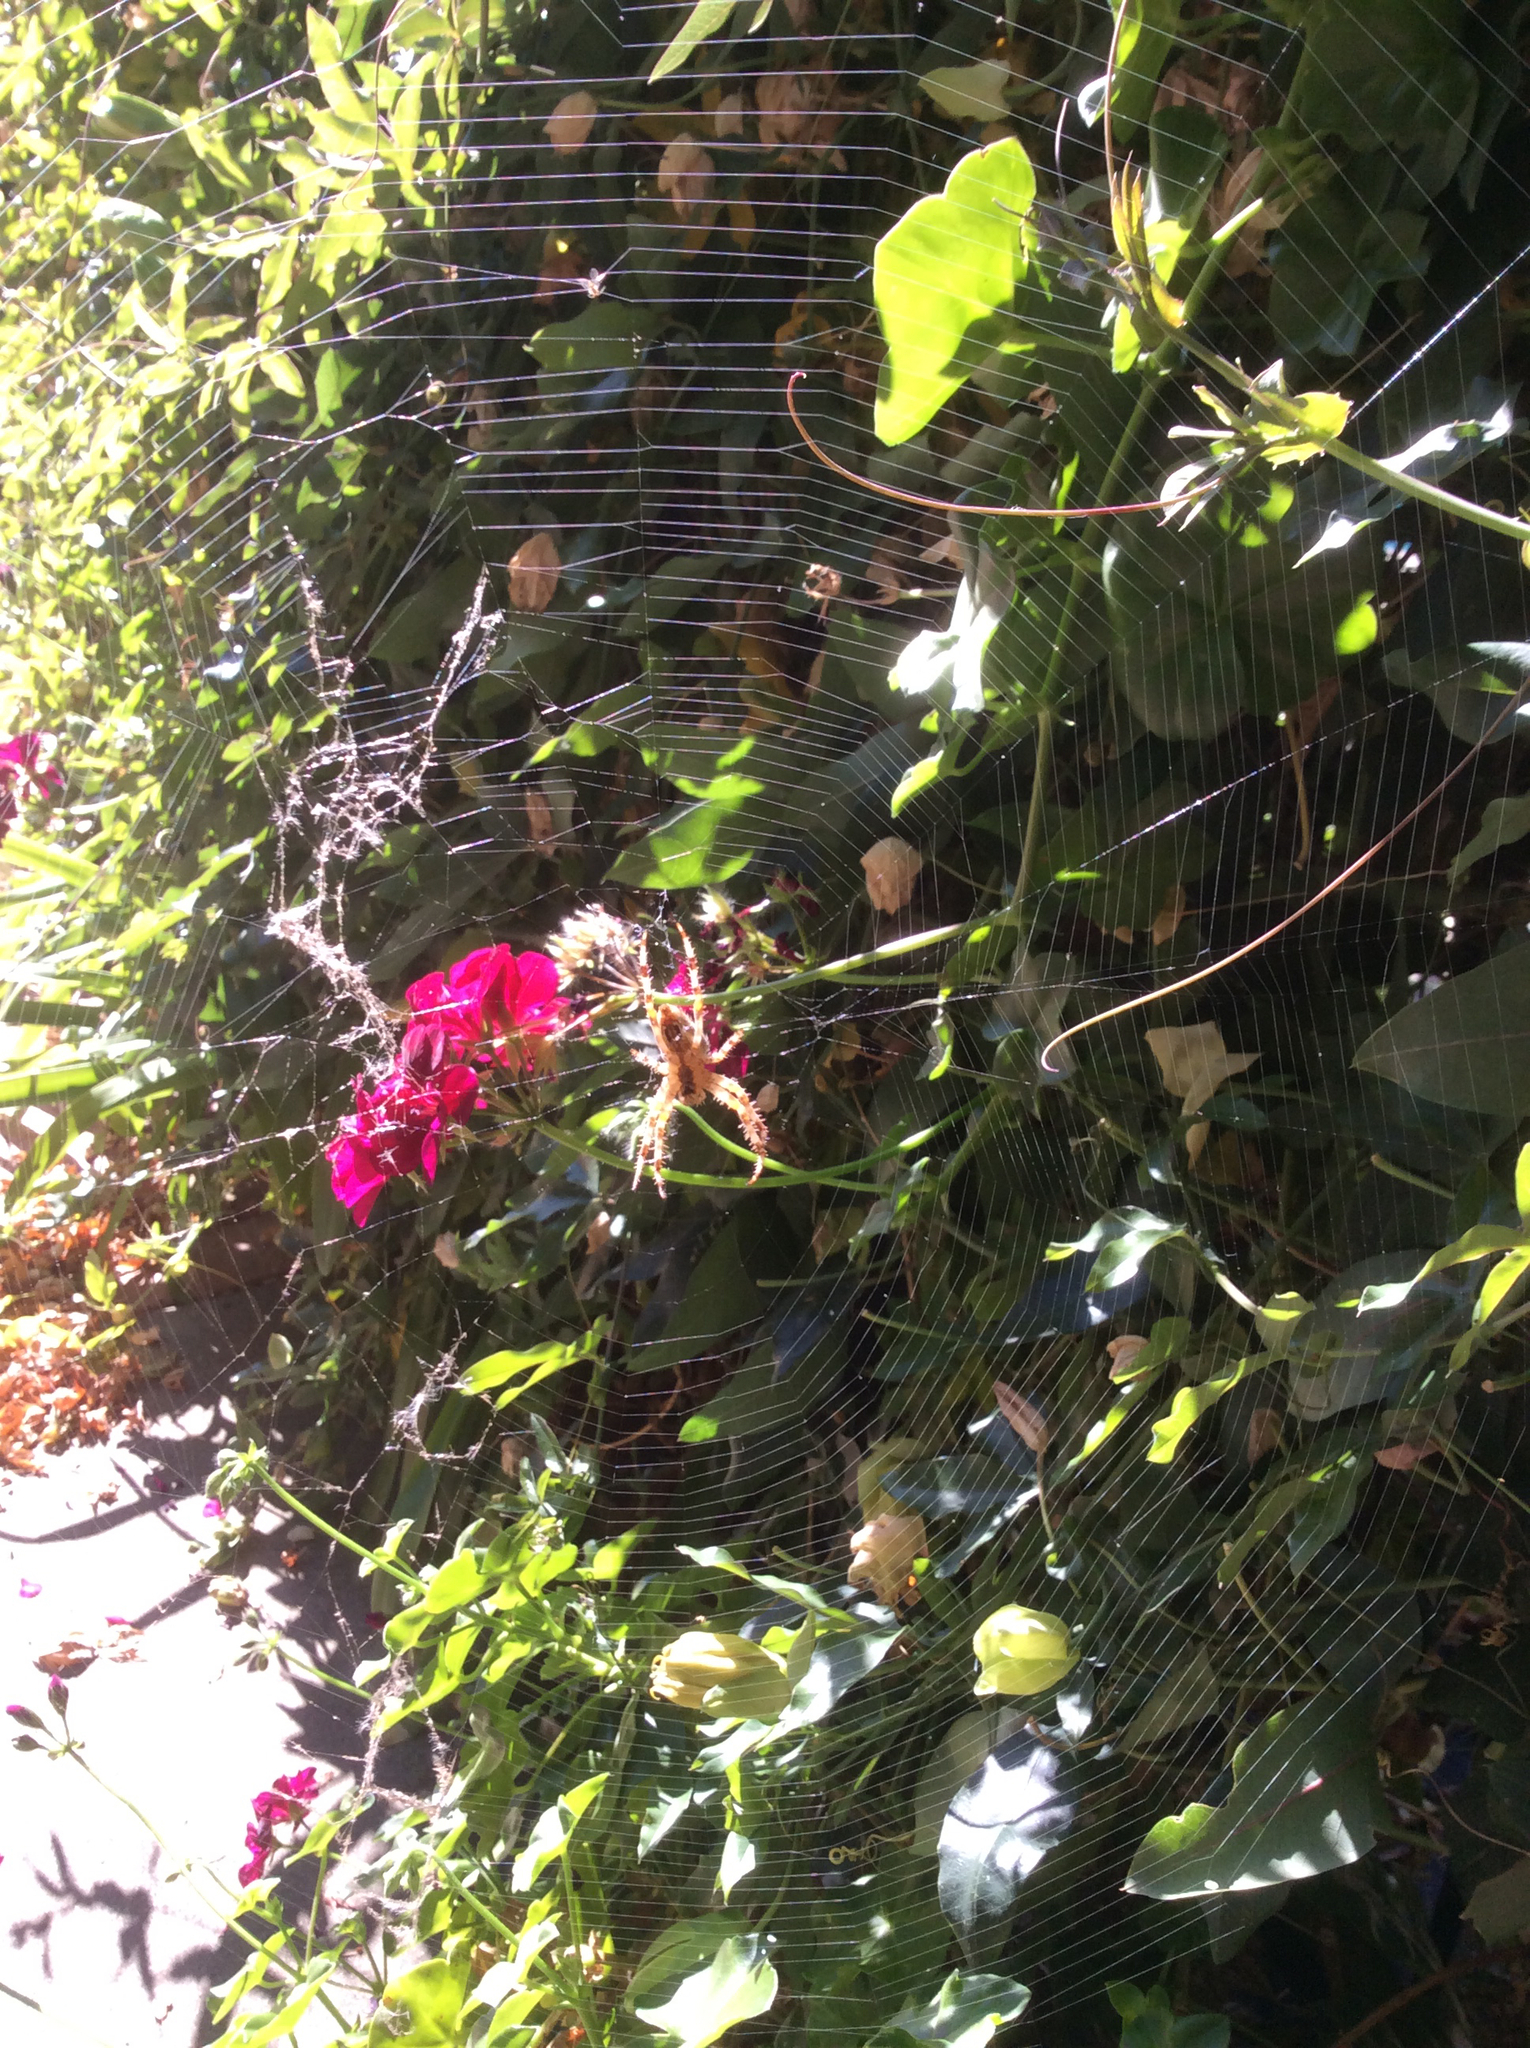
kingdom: Animalia
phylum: Arthropoda
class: Arachnida
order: Araneae
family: Araneidae
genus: Araneus
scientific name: Araneus diadematus
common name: Cross orbweaver
